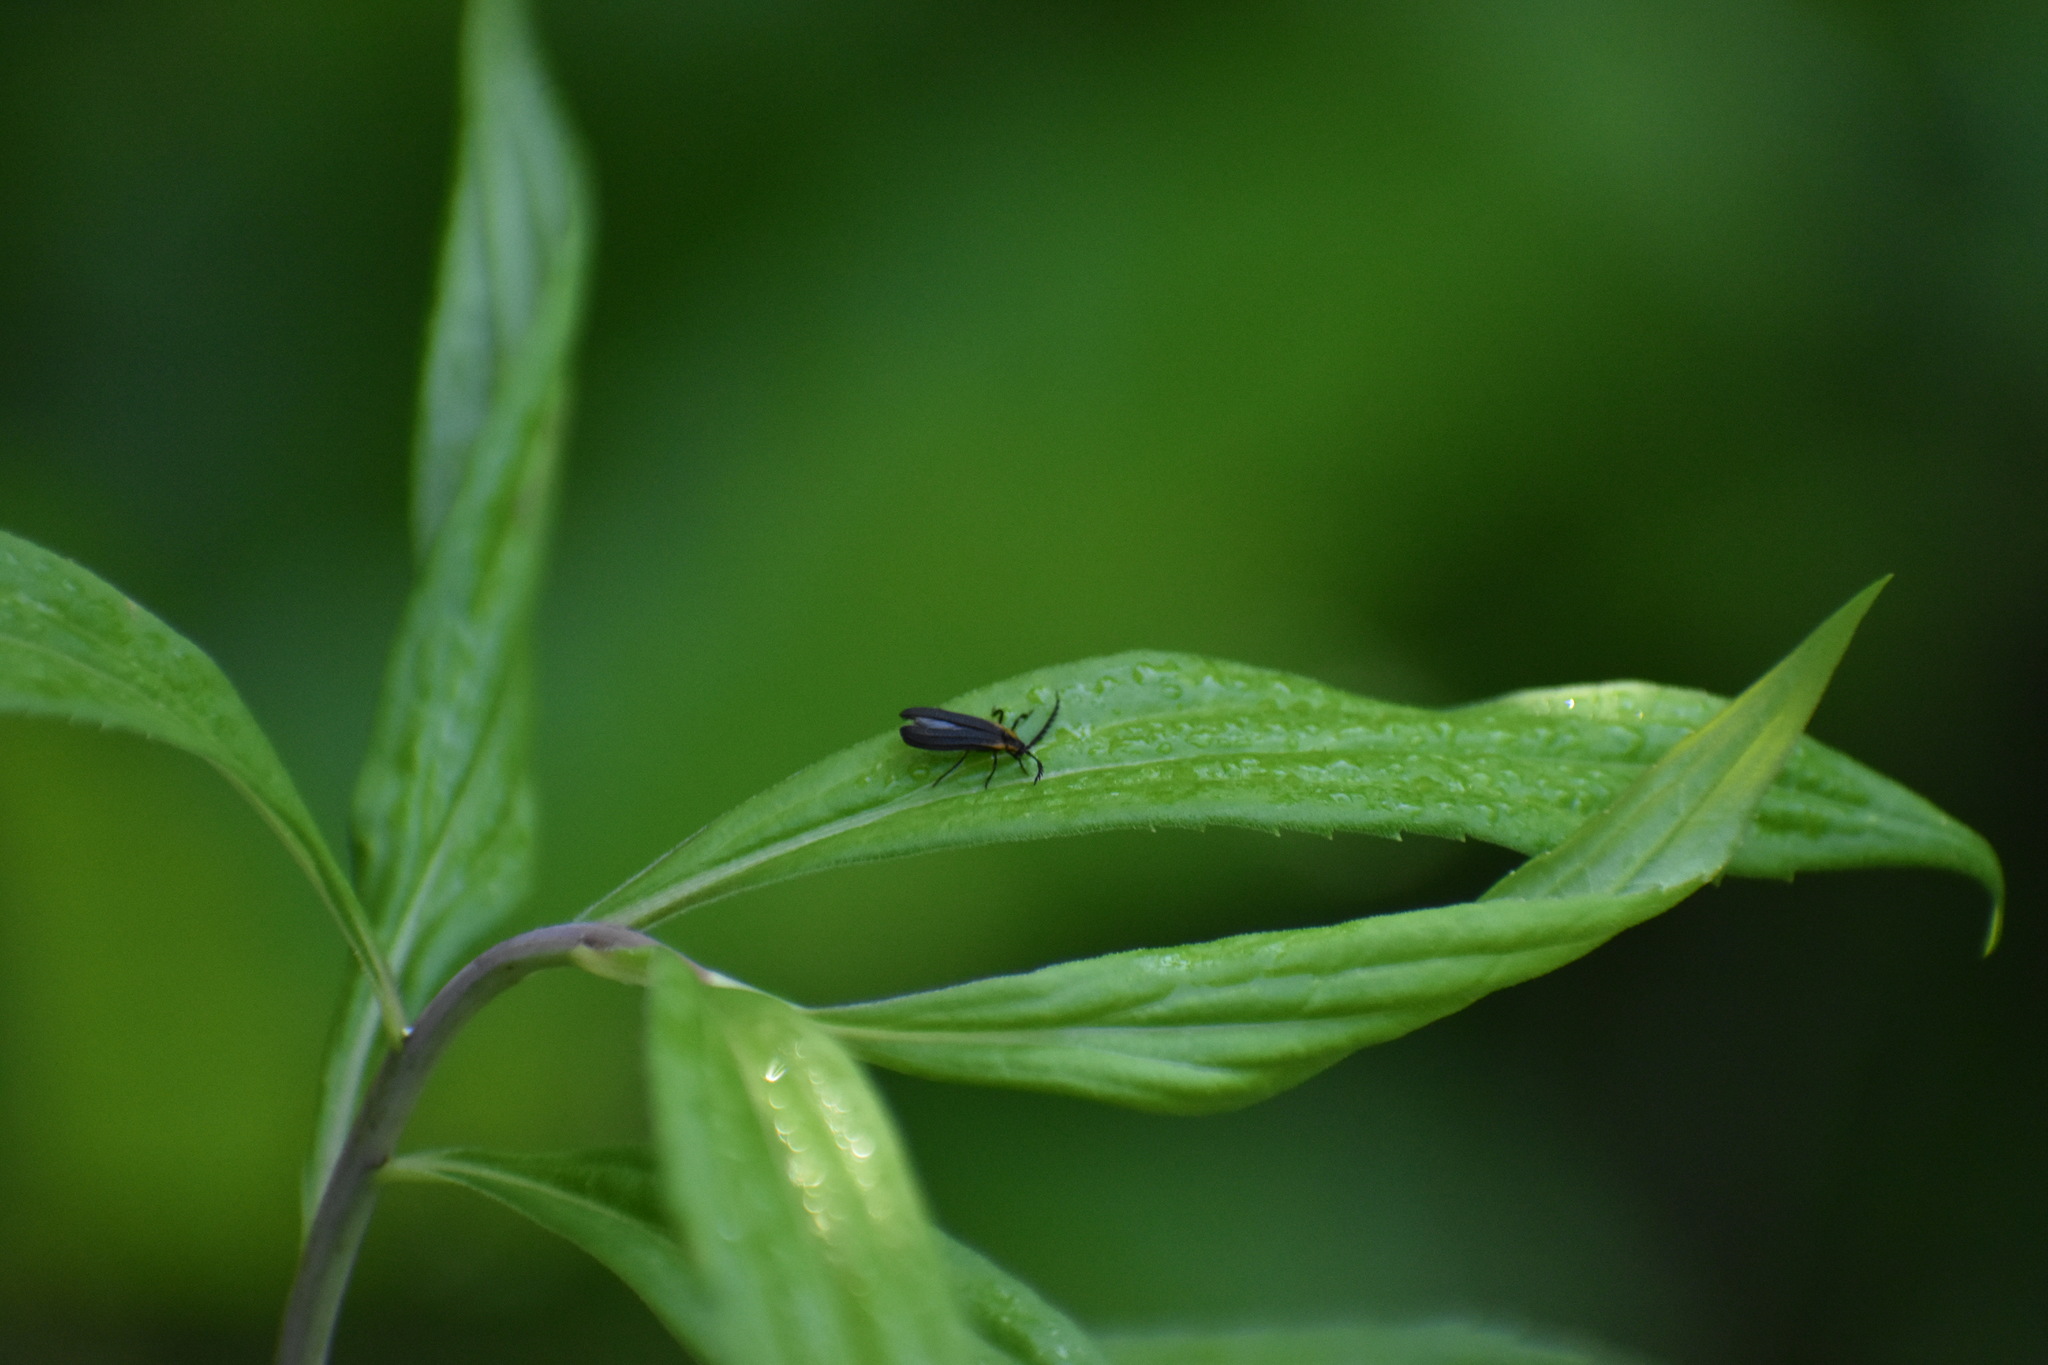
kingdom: Animalia
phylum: Arthropoda
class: Insecta
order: Coleoptera
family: Lycidae
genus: Leptoceletes
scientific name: Leptoceletes basalis
